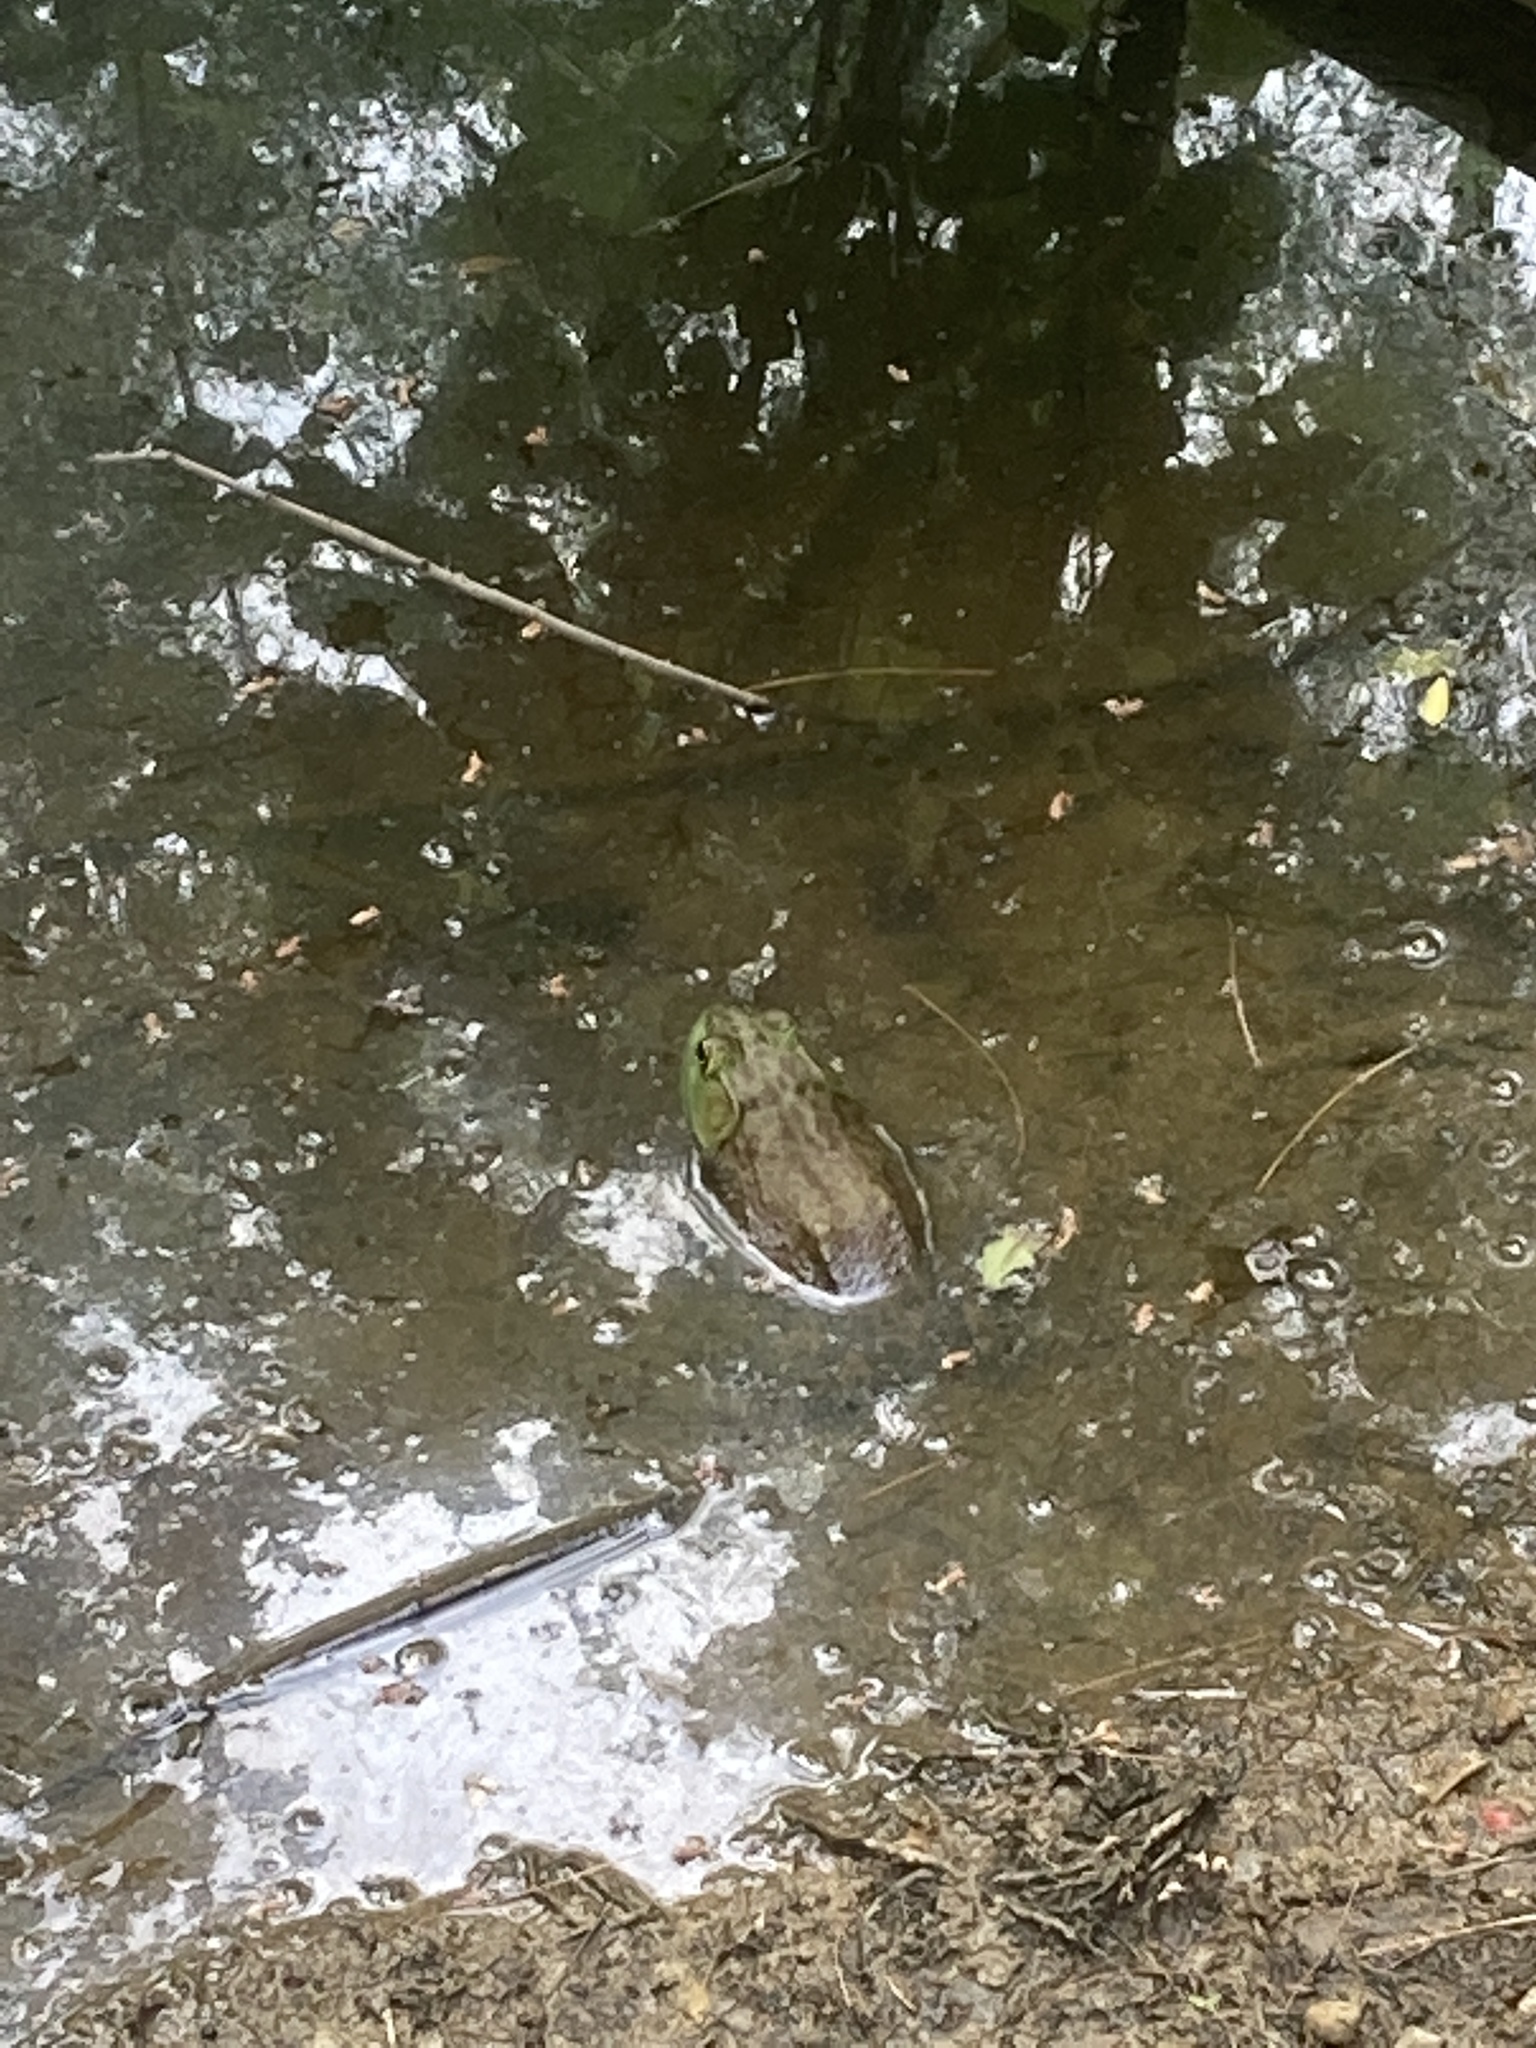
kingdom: Animalia
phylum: Chordata
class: Amphibia
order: Anura
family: Ranidae
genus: Lithobates
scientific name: Lithobates catesbeianus
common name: American bullfrog
